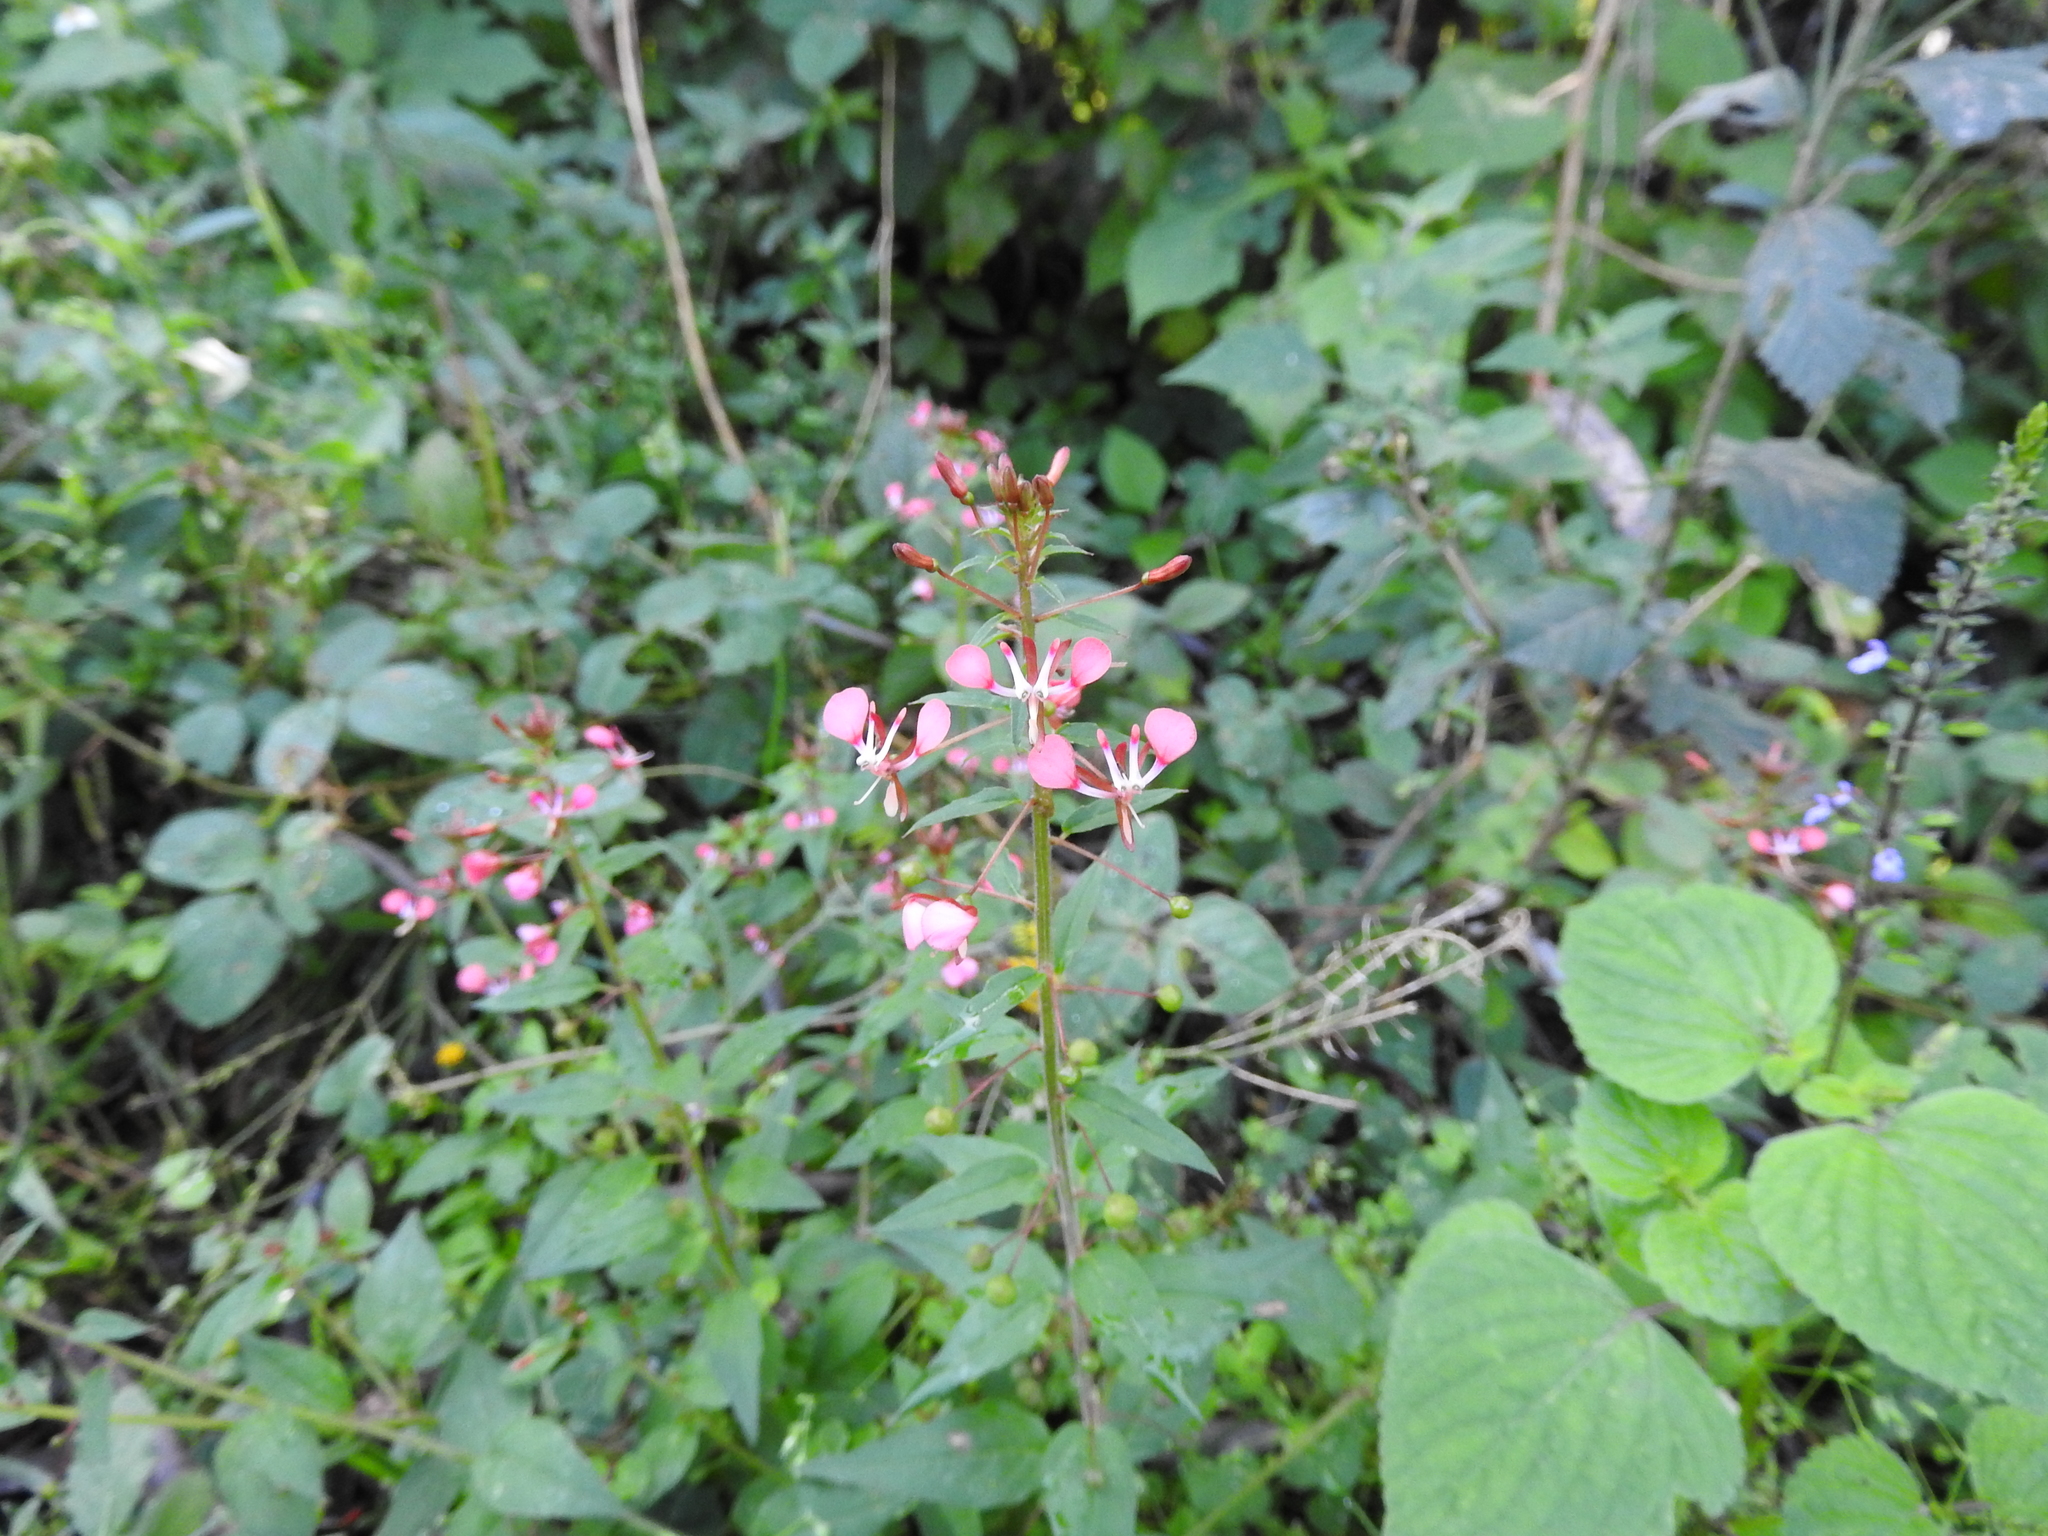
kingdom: Plantae
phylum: Tracheophyta
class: Magnoliopsida
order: Myrtales
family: Onagraceae
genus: Lopezia
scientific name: Lopezia racemosa
